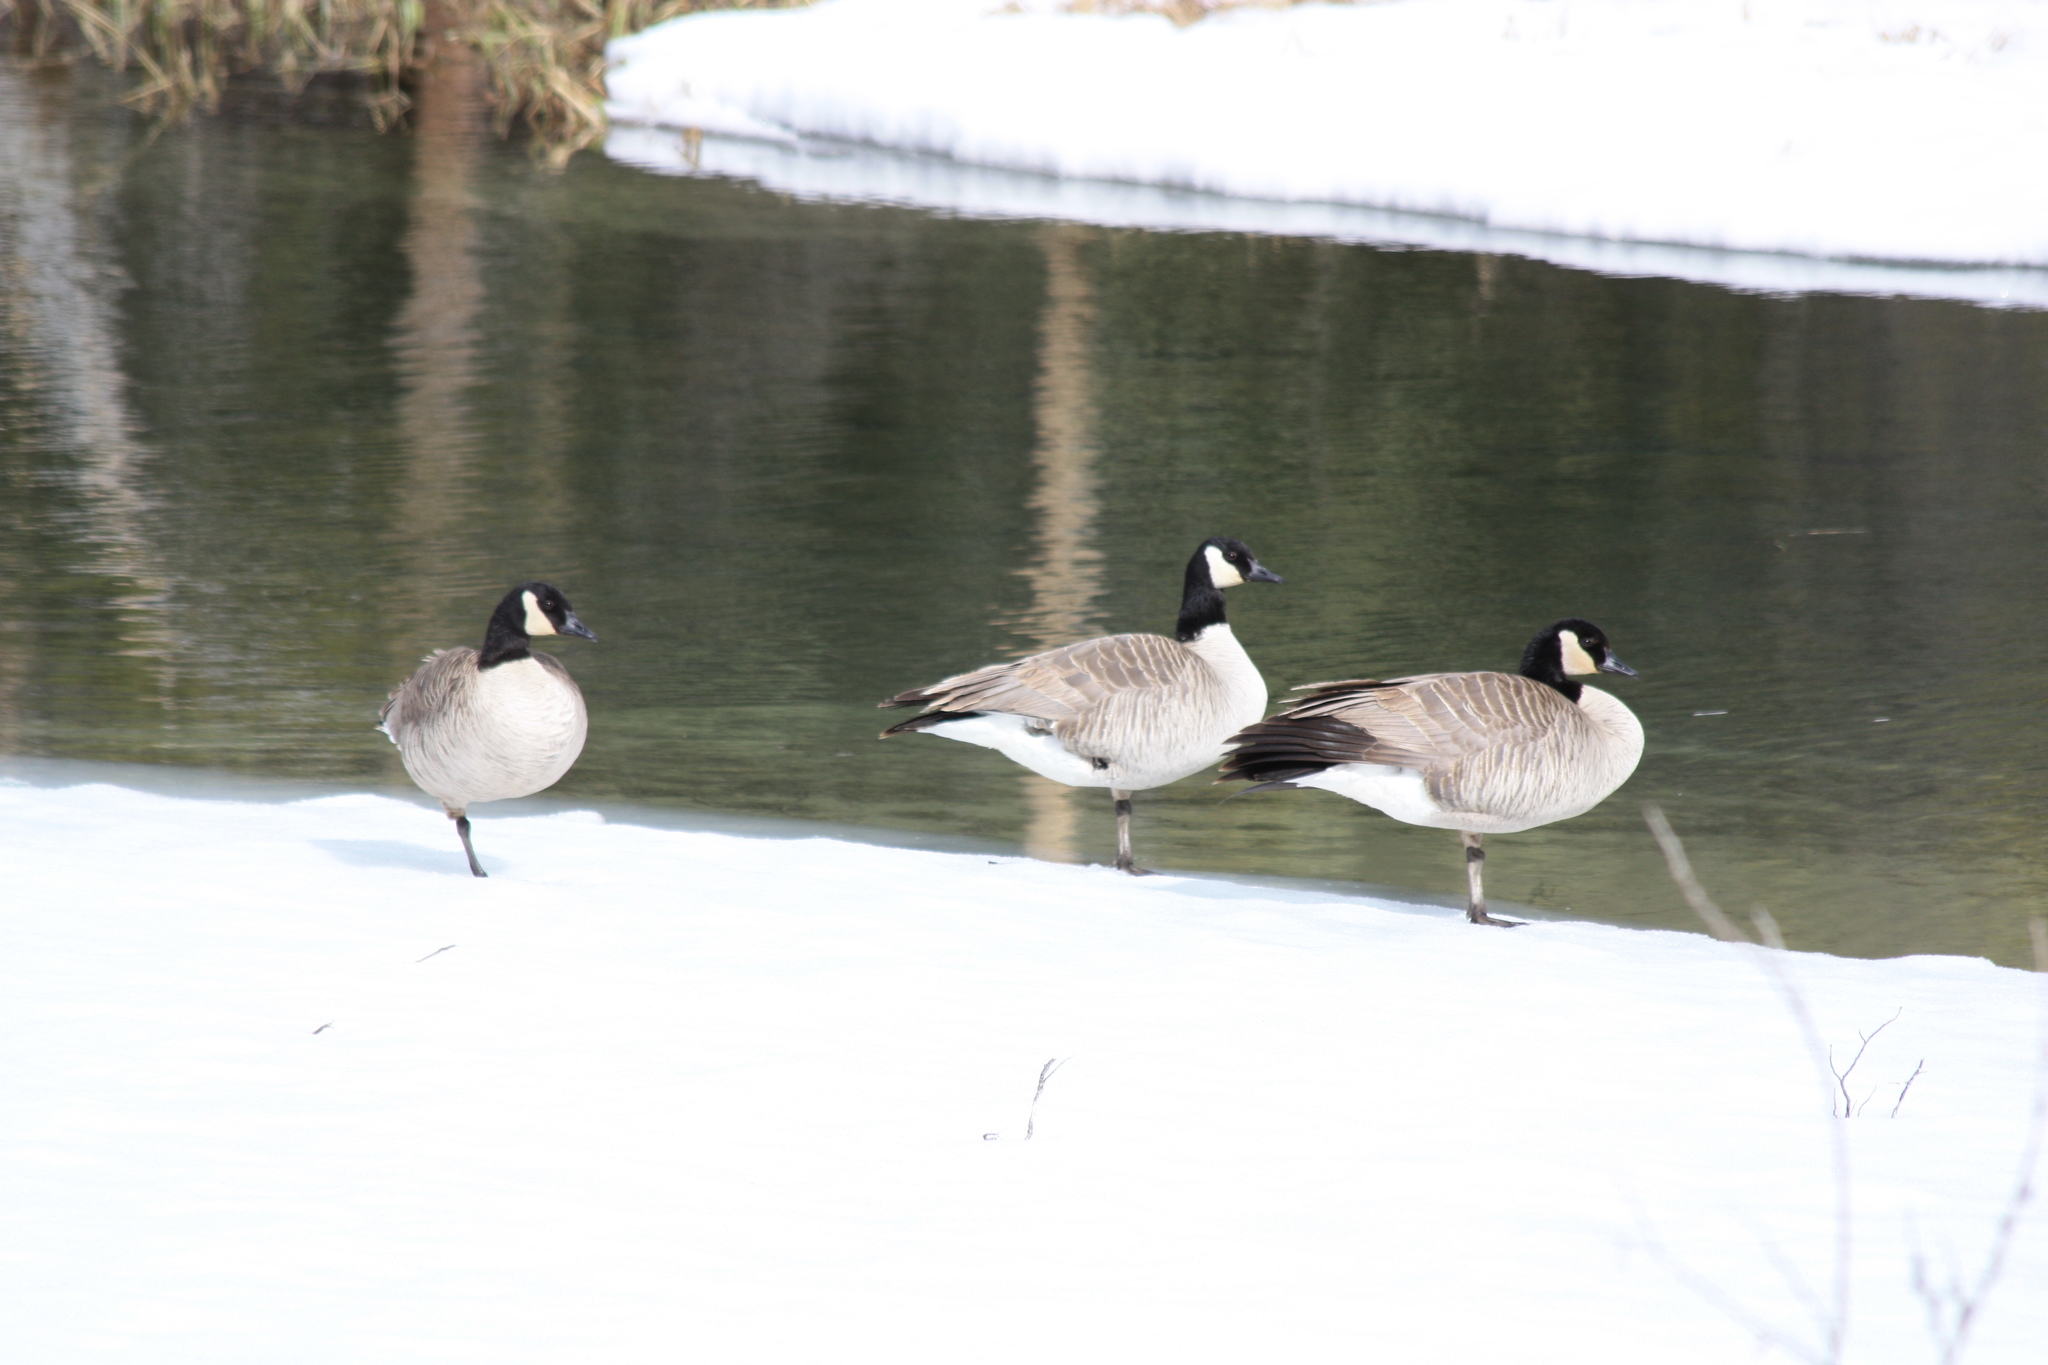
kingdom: Animalia
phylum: Chordata
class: Aves
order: Anseriformes
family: Anatidae
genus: Branta
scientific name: Branta canadensis
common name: Canada goose
